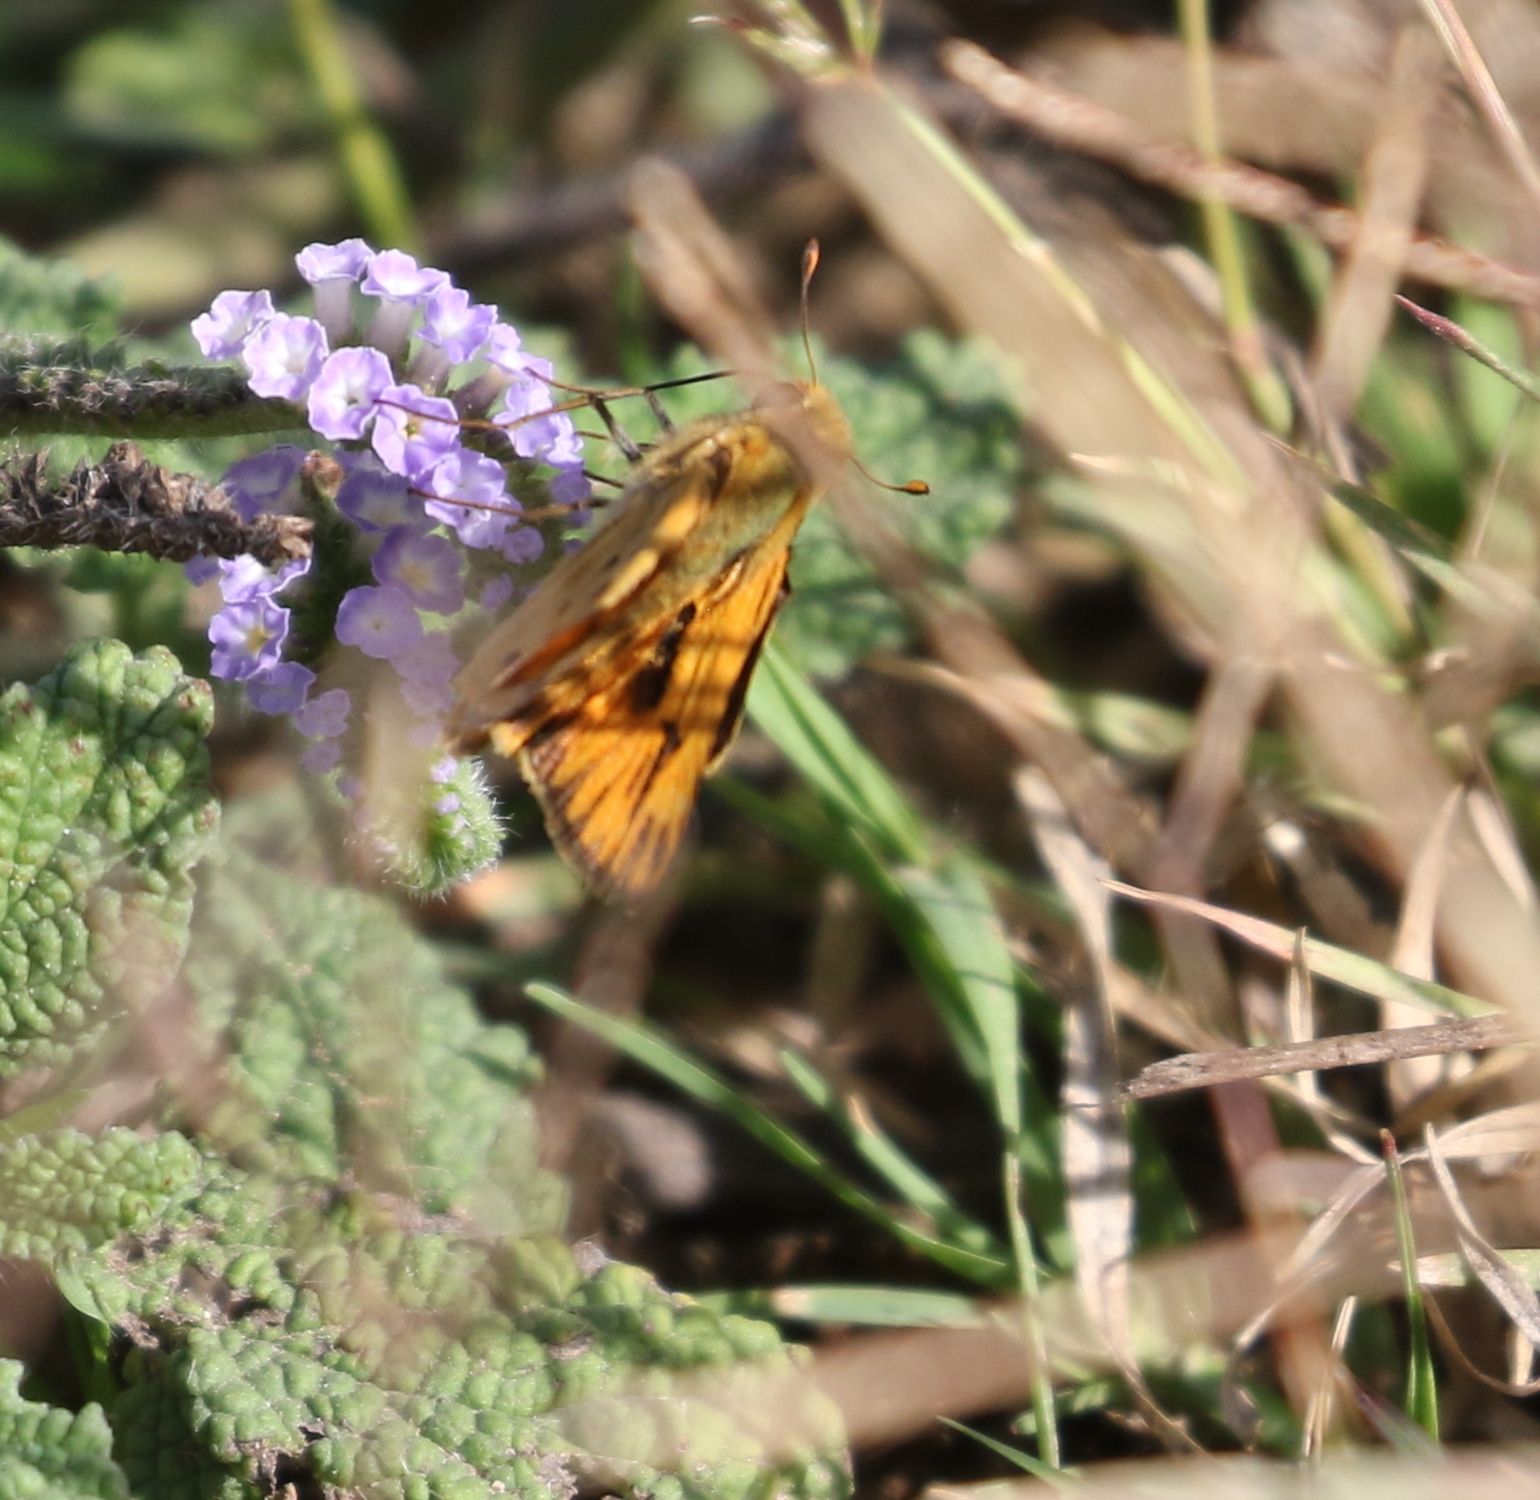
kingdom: Animalia
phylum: Arthropoda
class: Insecta
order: Lepidoptera
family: Hesperiidae
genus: Hylephila
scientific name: Hylephila phyleus
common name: Fiery skipper
